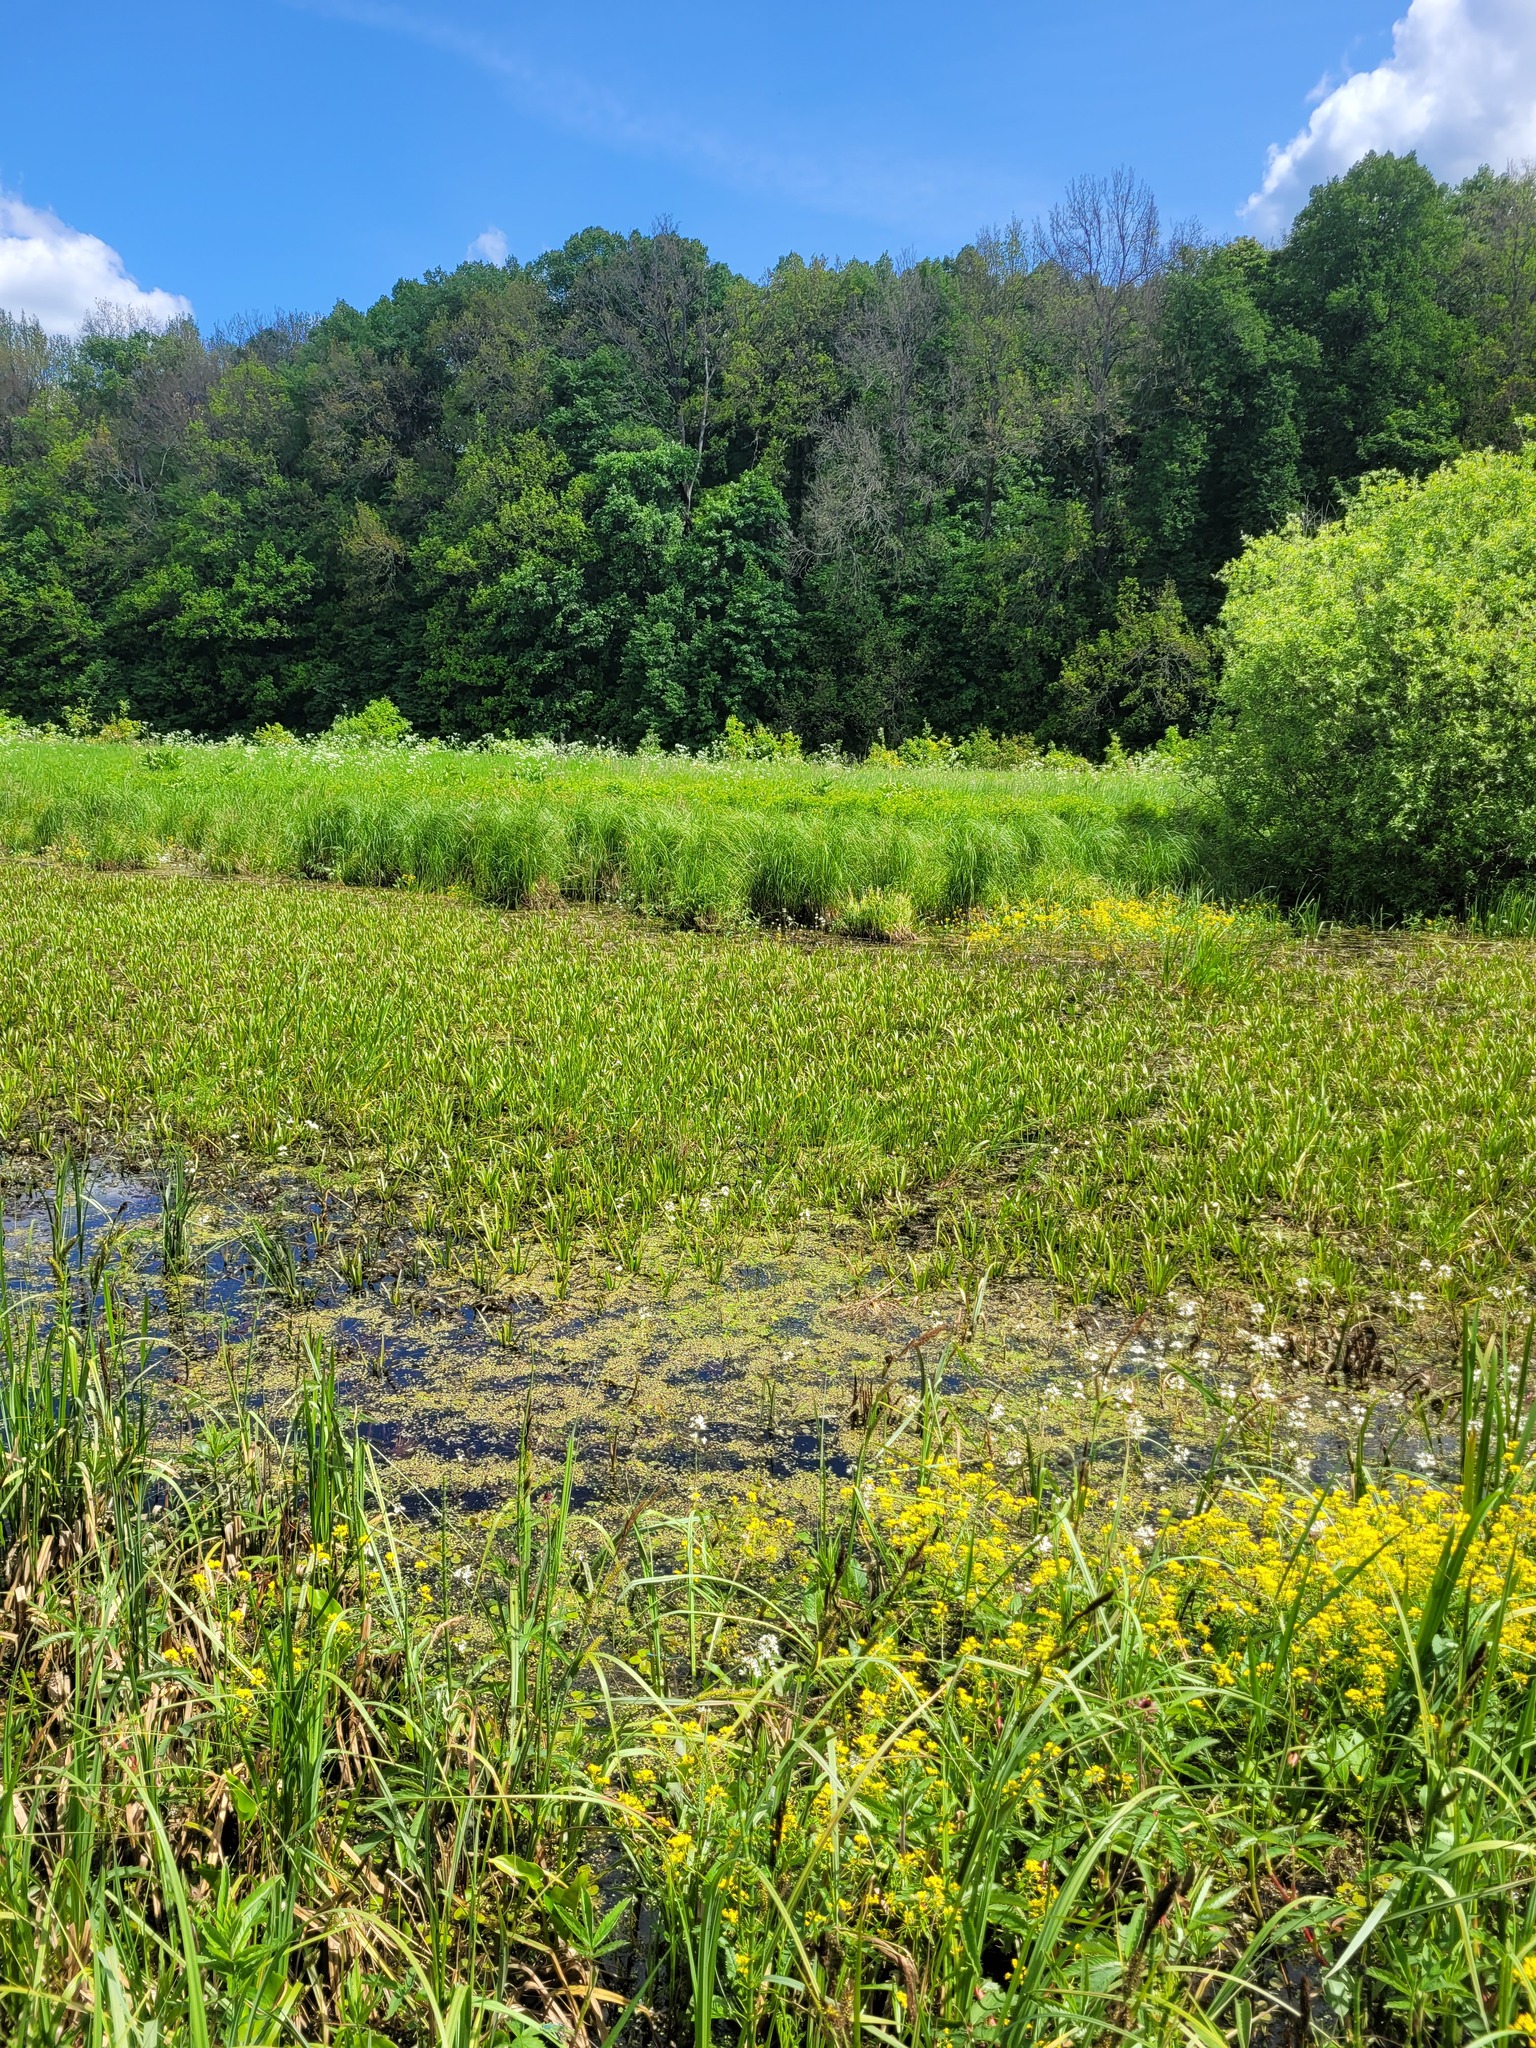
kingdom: Plantae
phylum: Tracheophyta
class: Liliopsida
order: Alismatales
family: Hydrocharitaceae
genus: Stratiotes
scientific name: Stratiotes aloides
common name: Water-soldier
